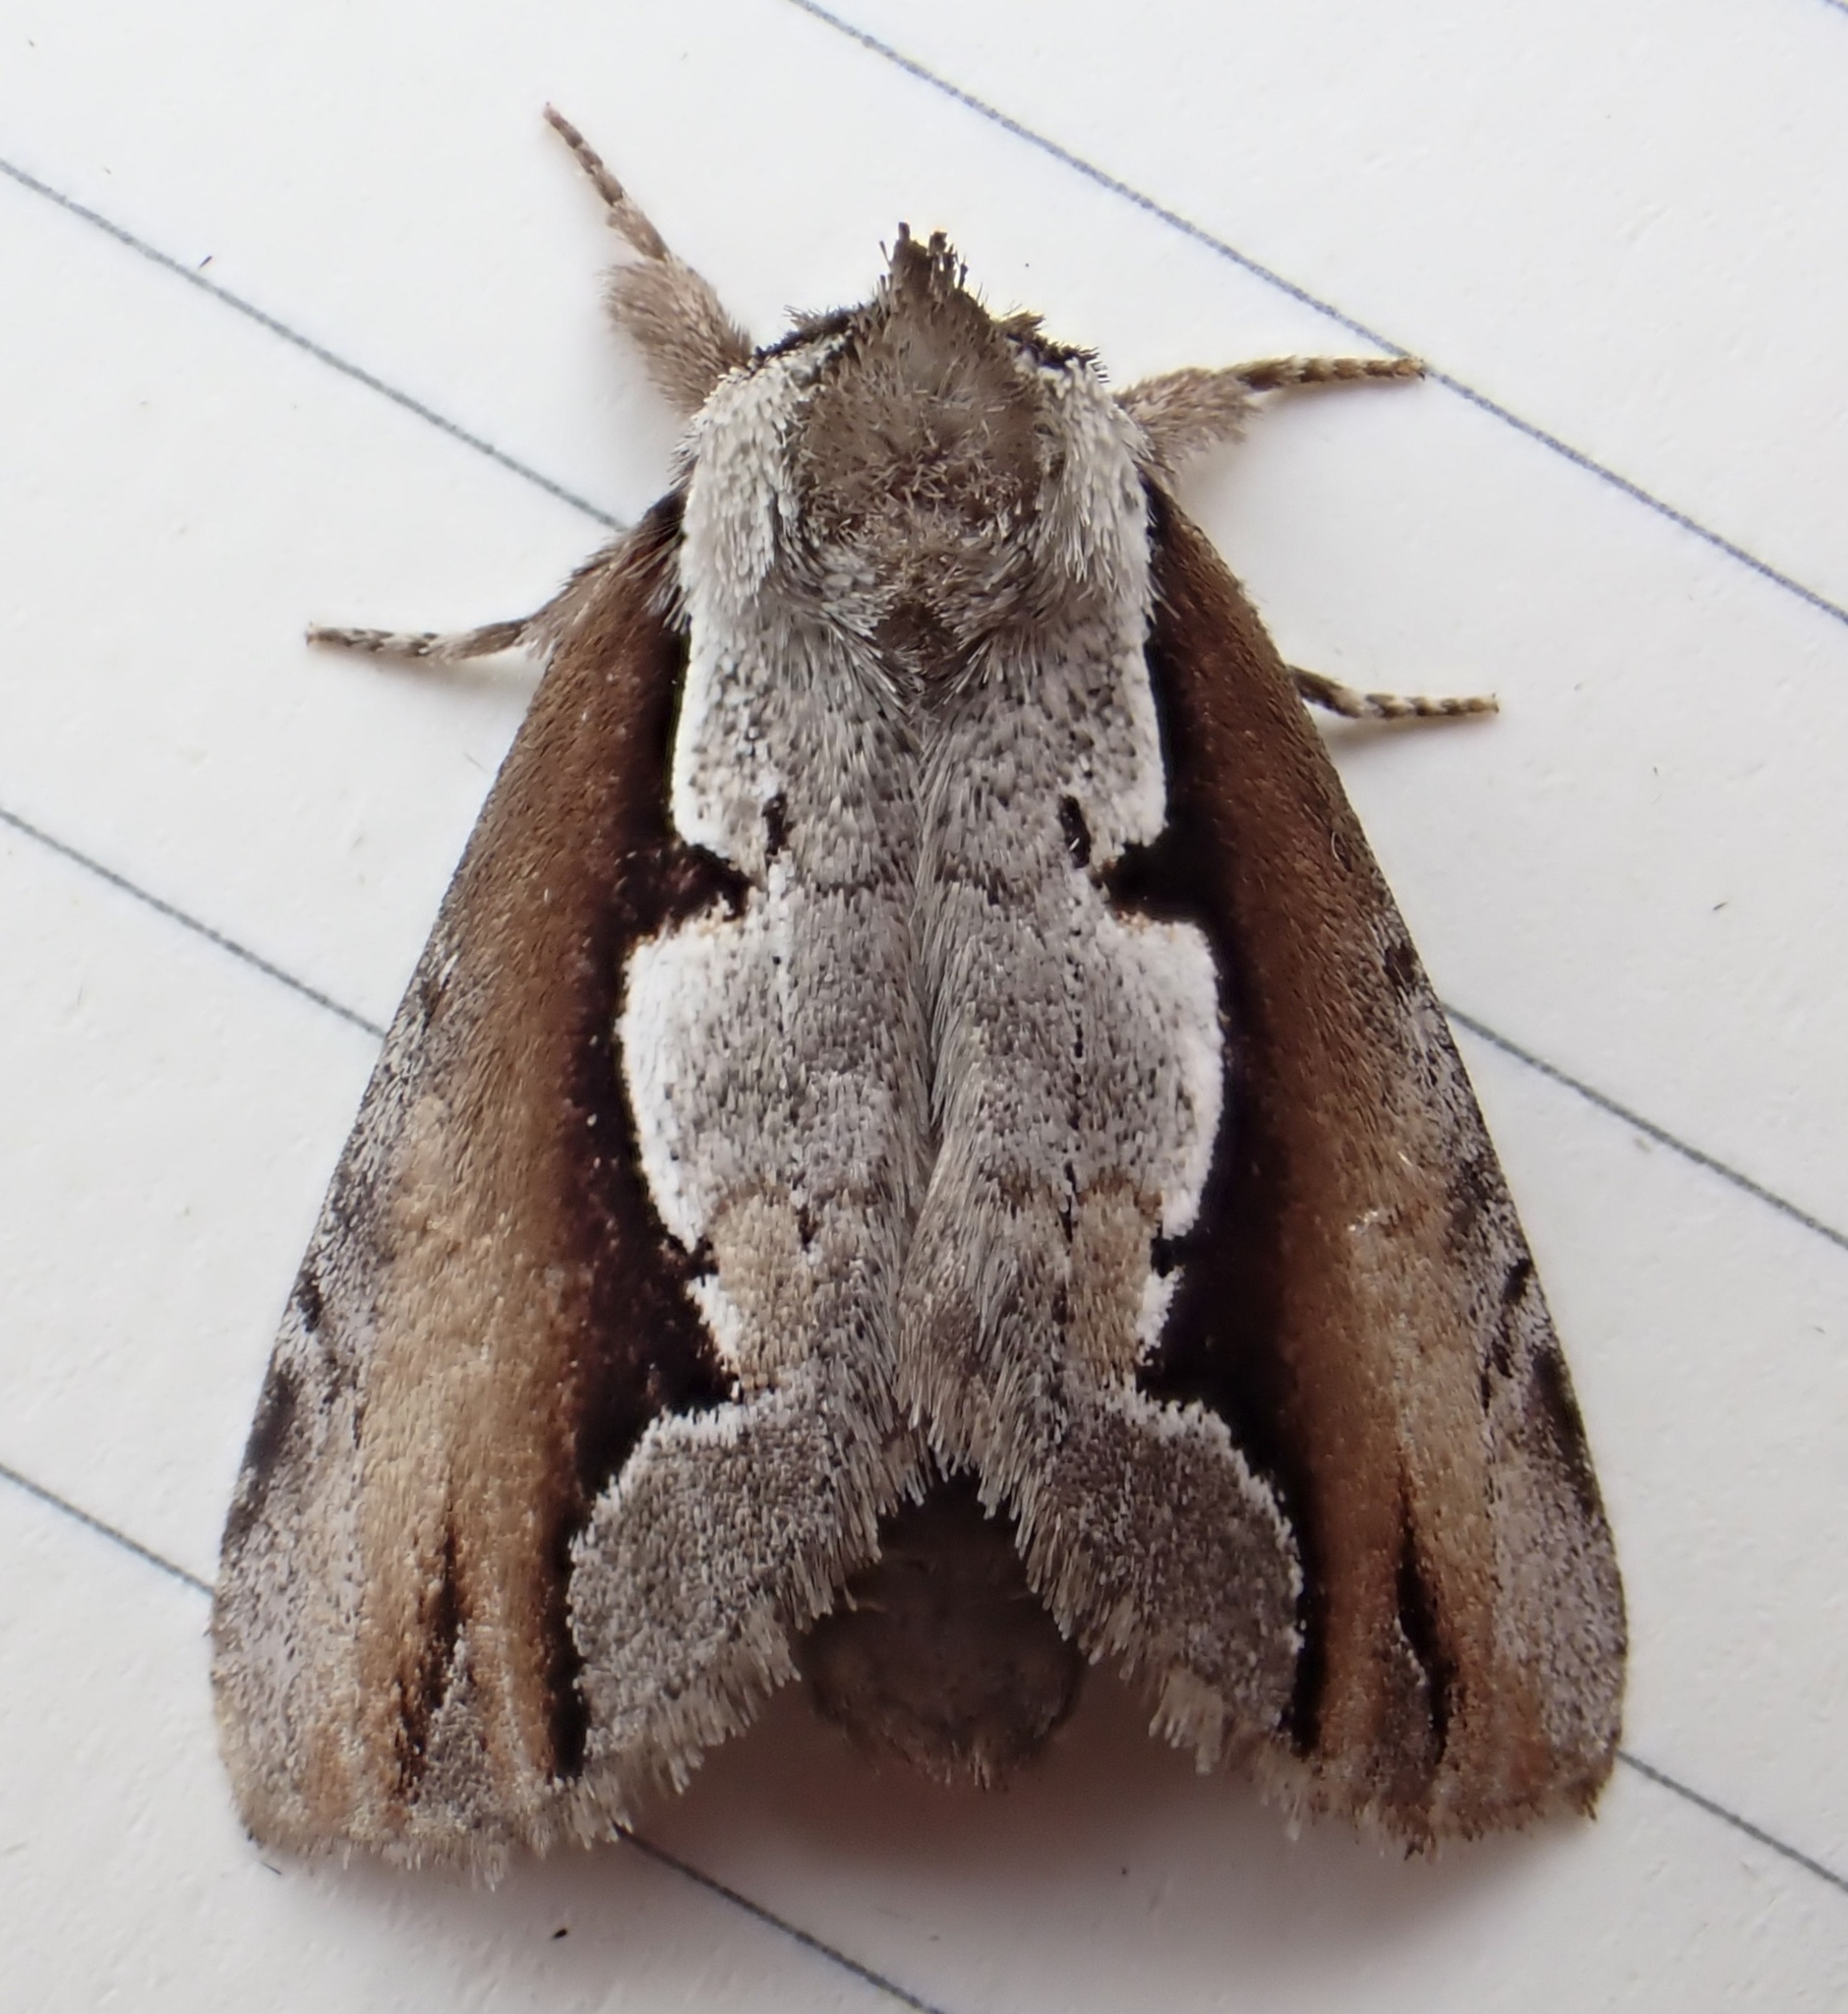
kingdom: Animalia
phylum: Arthropoda
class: Insecta
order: Lepidoptera
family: Notodontidae
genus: Nerice
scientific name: Nerice bidentata
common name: Double-toothed prominent
